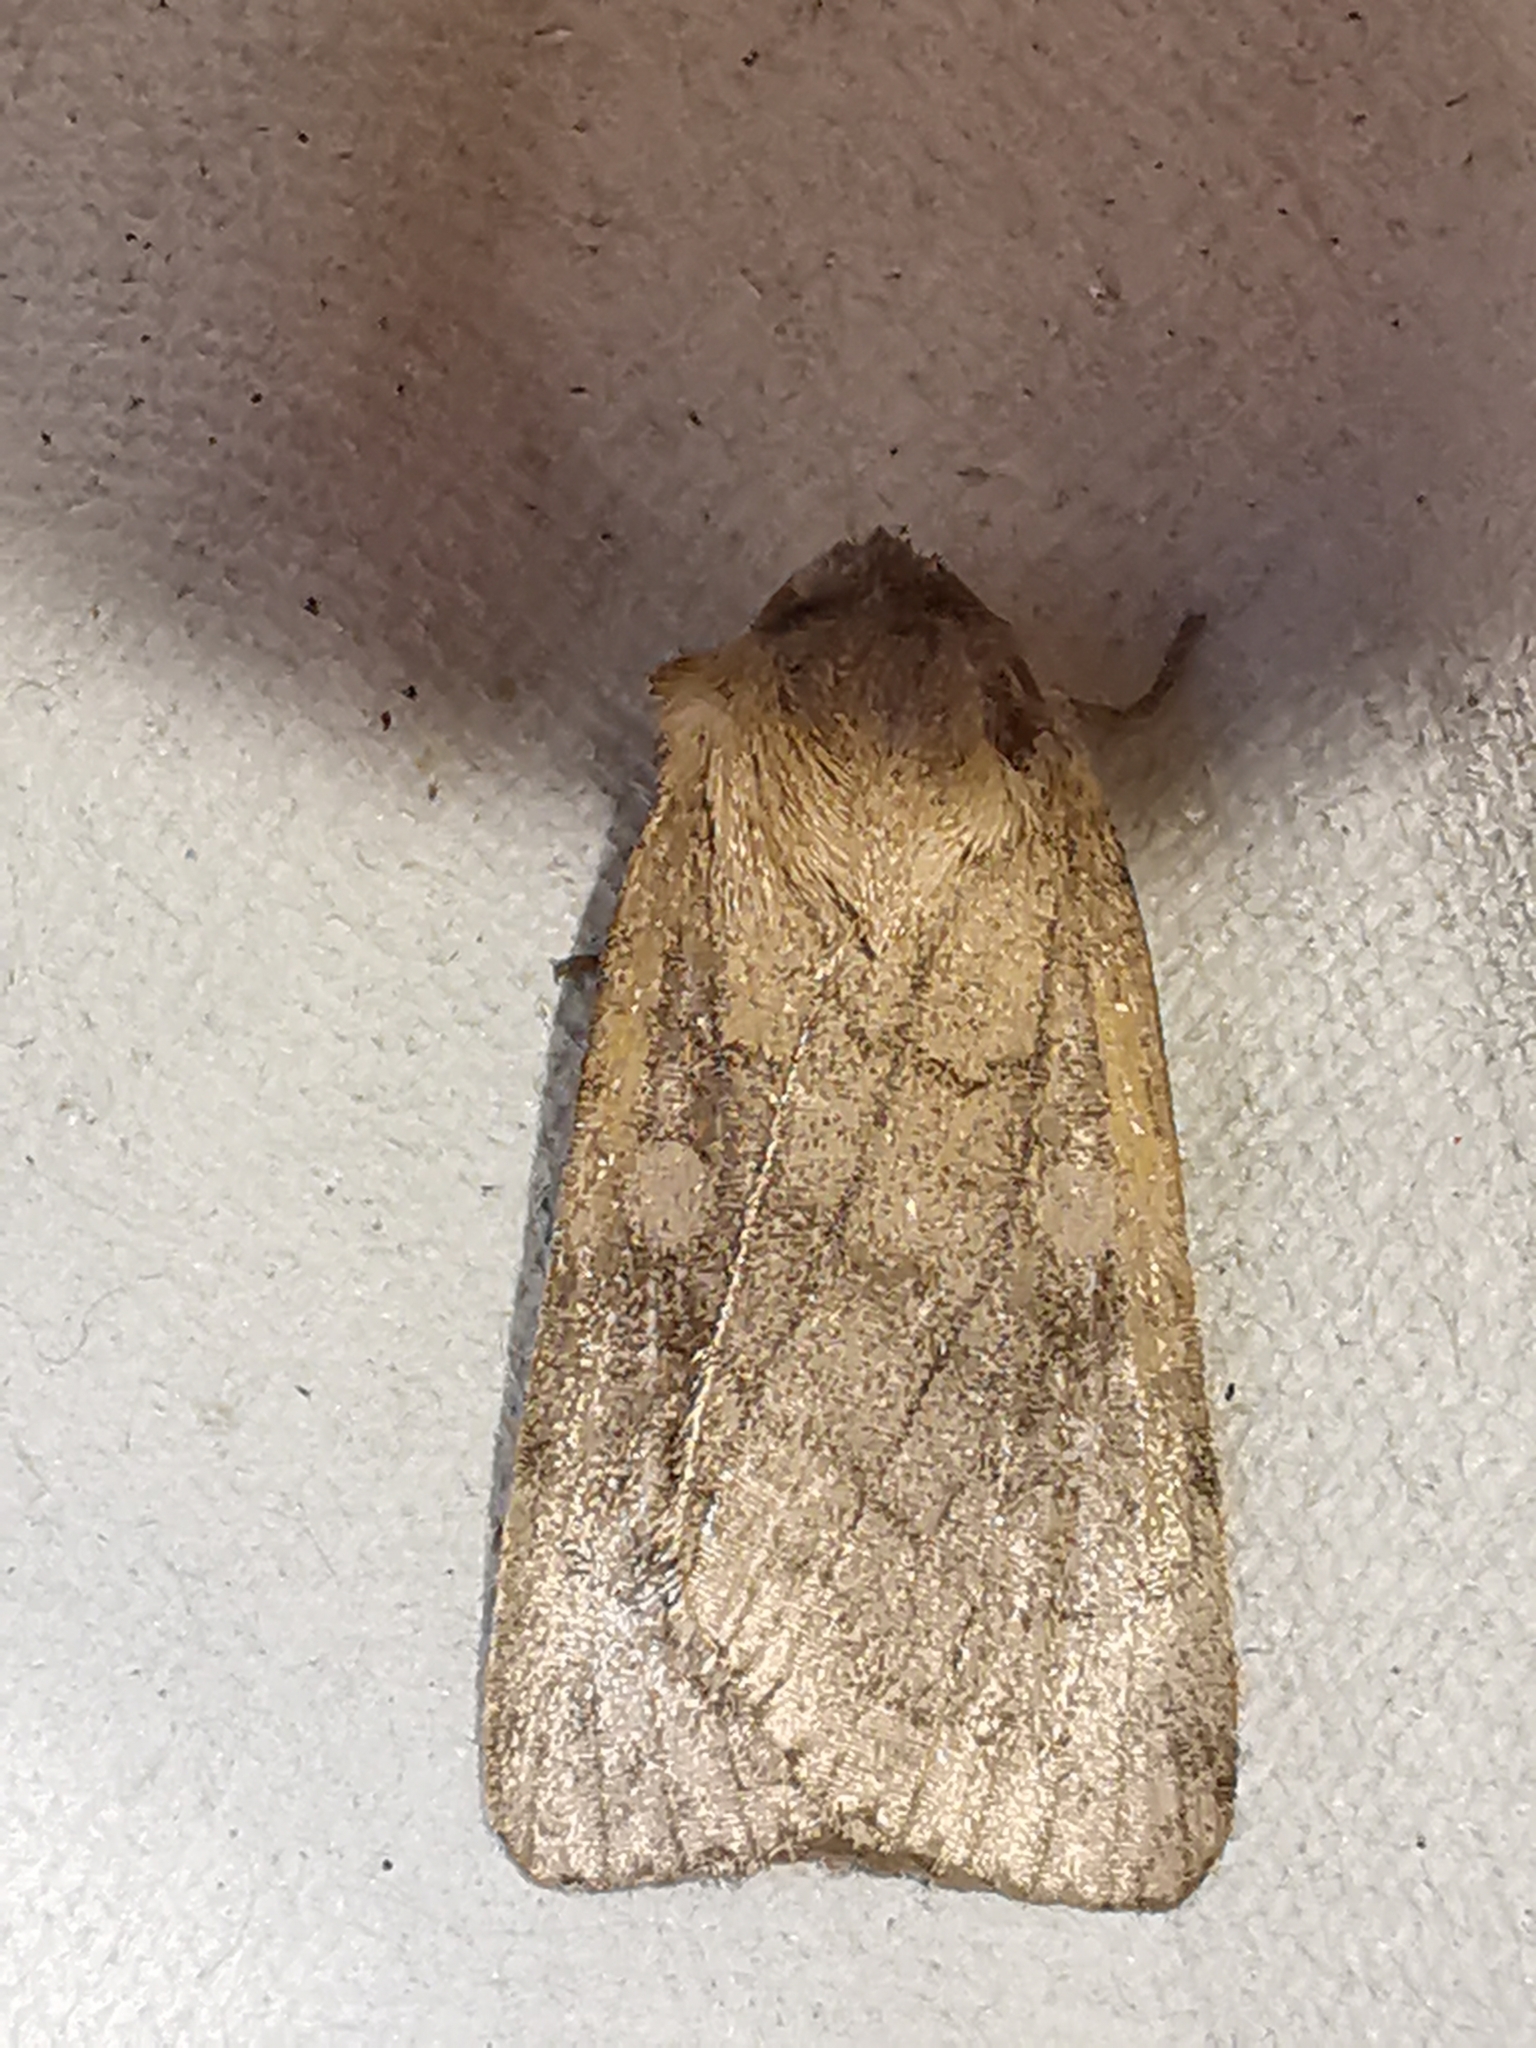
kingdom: Animalia
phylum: Arthropoda
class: Insecta
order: Lepidoptera
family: Noctuidae
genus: Xestia
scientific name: Xestia sexstrigata
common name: Six-striped rustic
